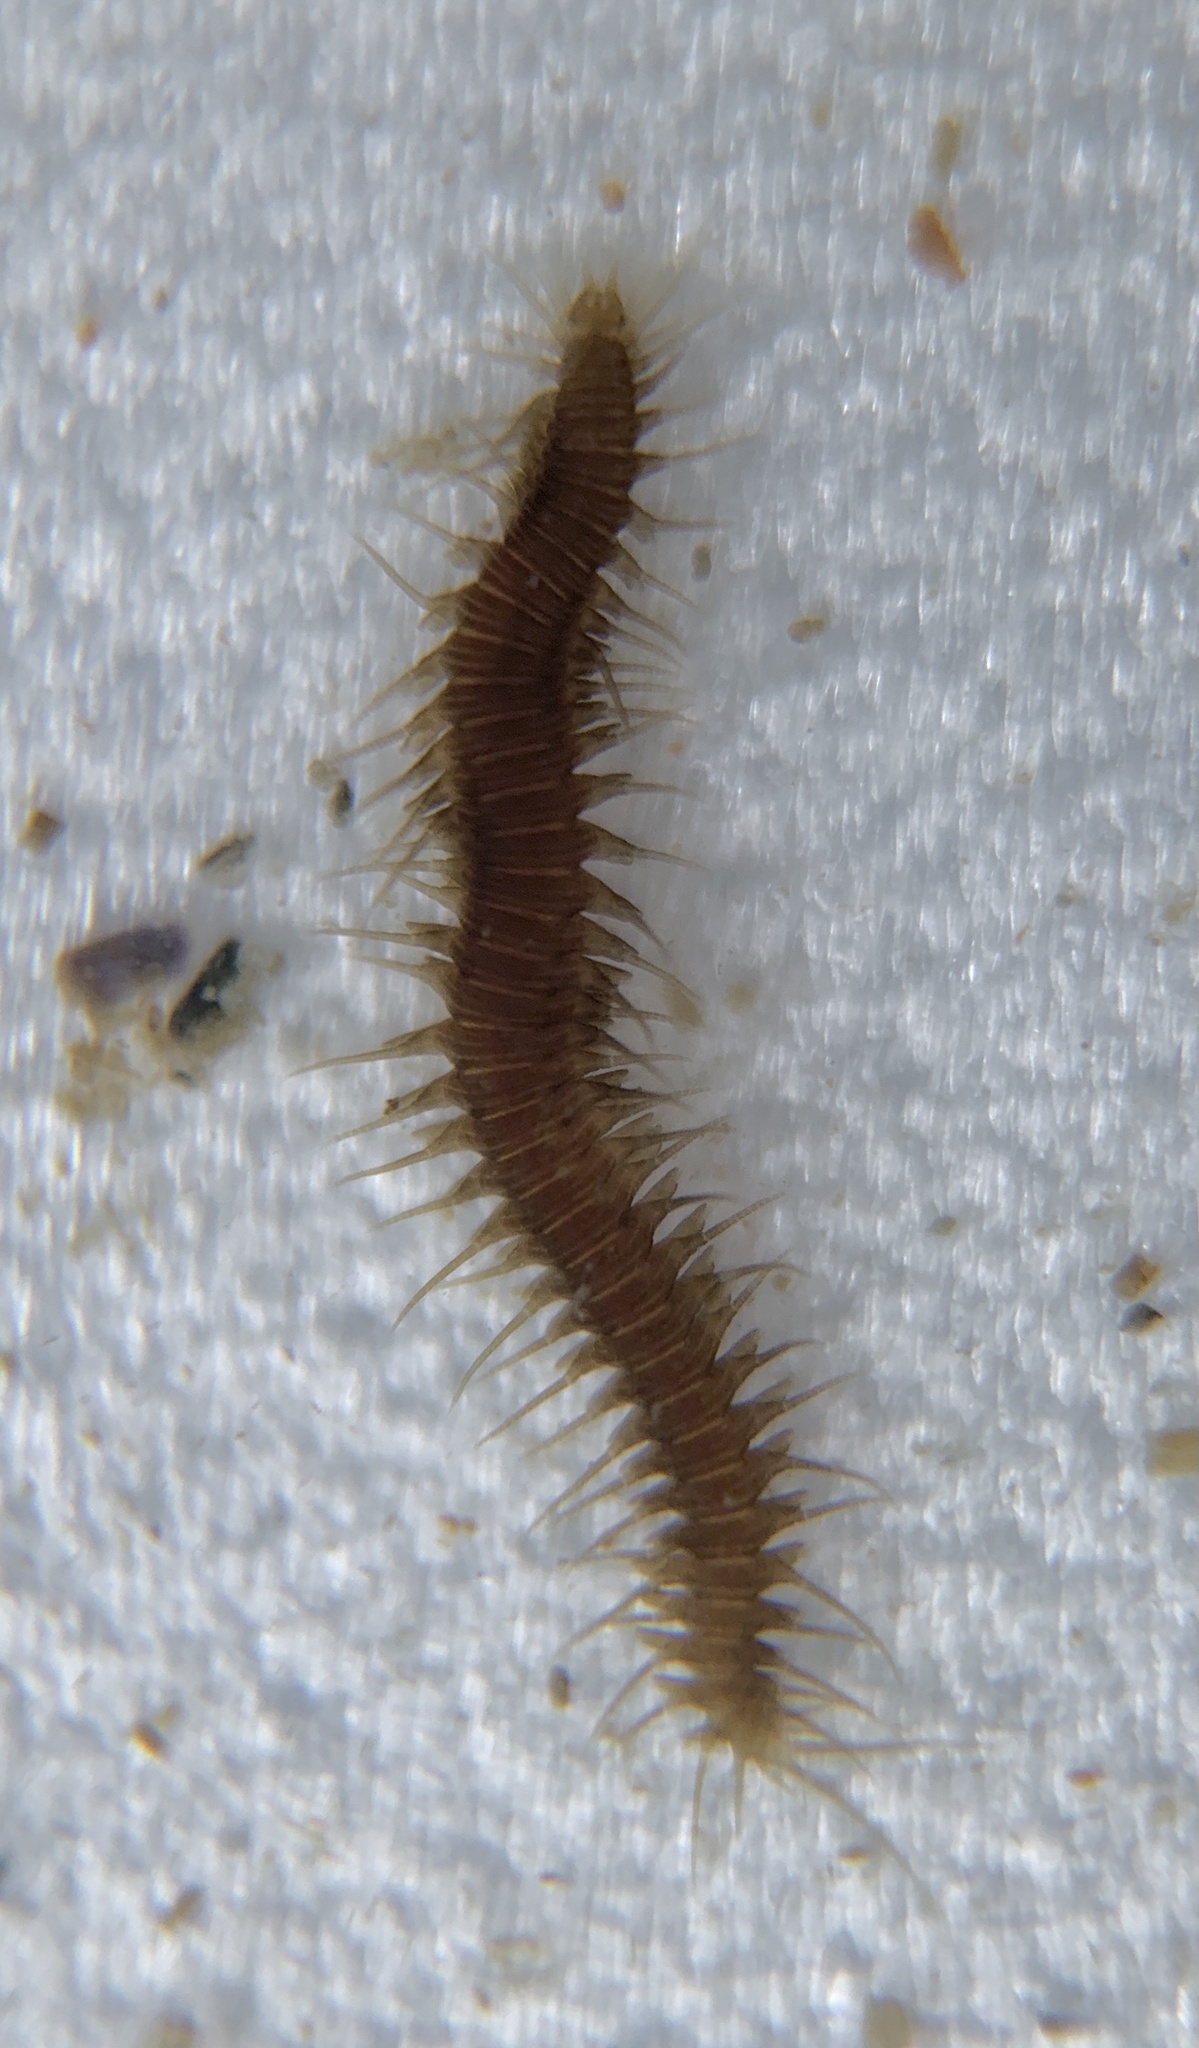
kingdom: Animalia
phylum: Annelida
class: Polychaeta
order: Phyllodocida
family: Hesionidae
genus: Oxydromus
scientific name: Oxydromus pugettensis
